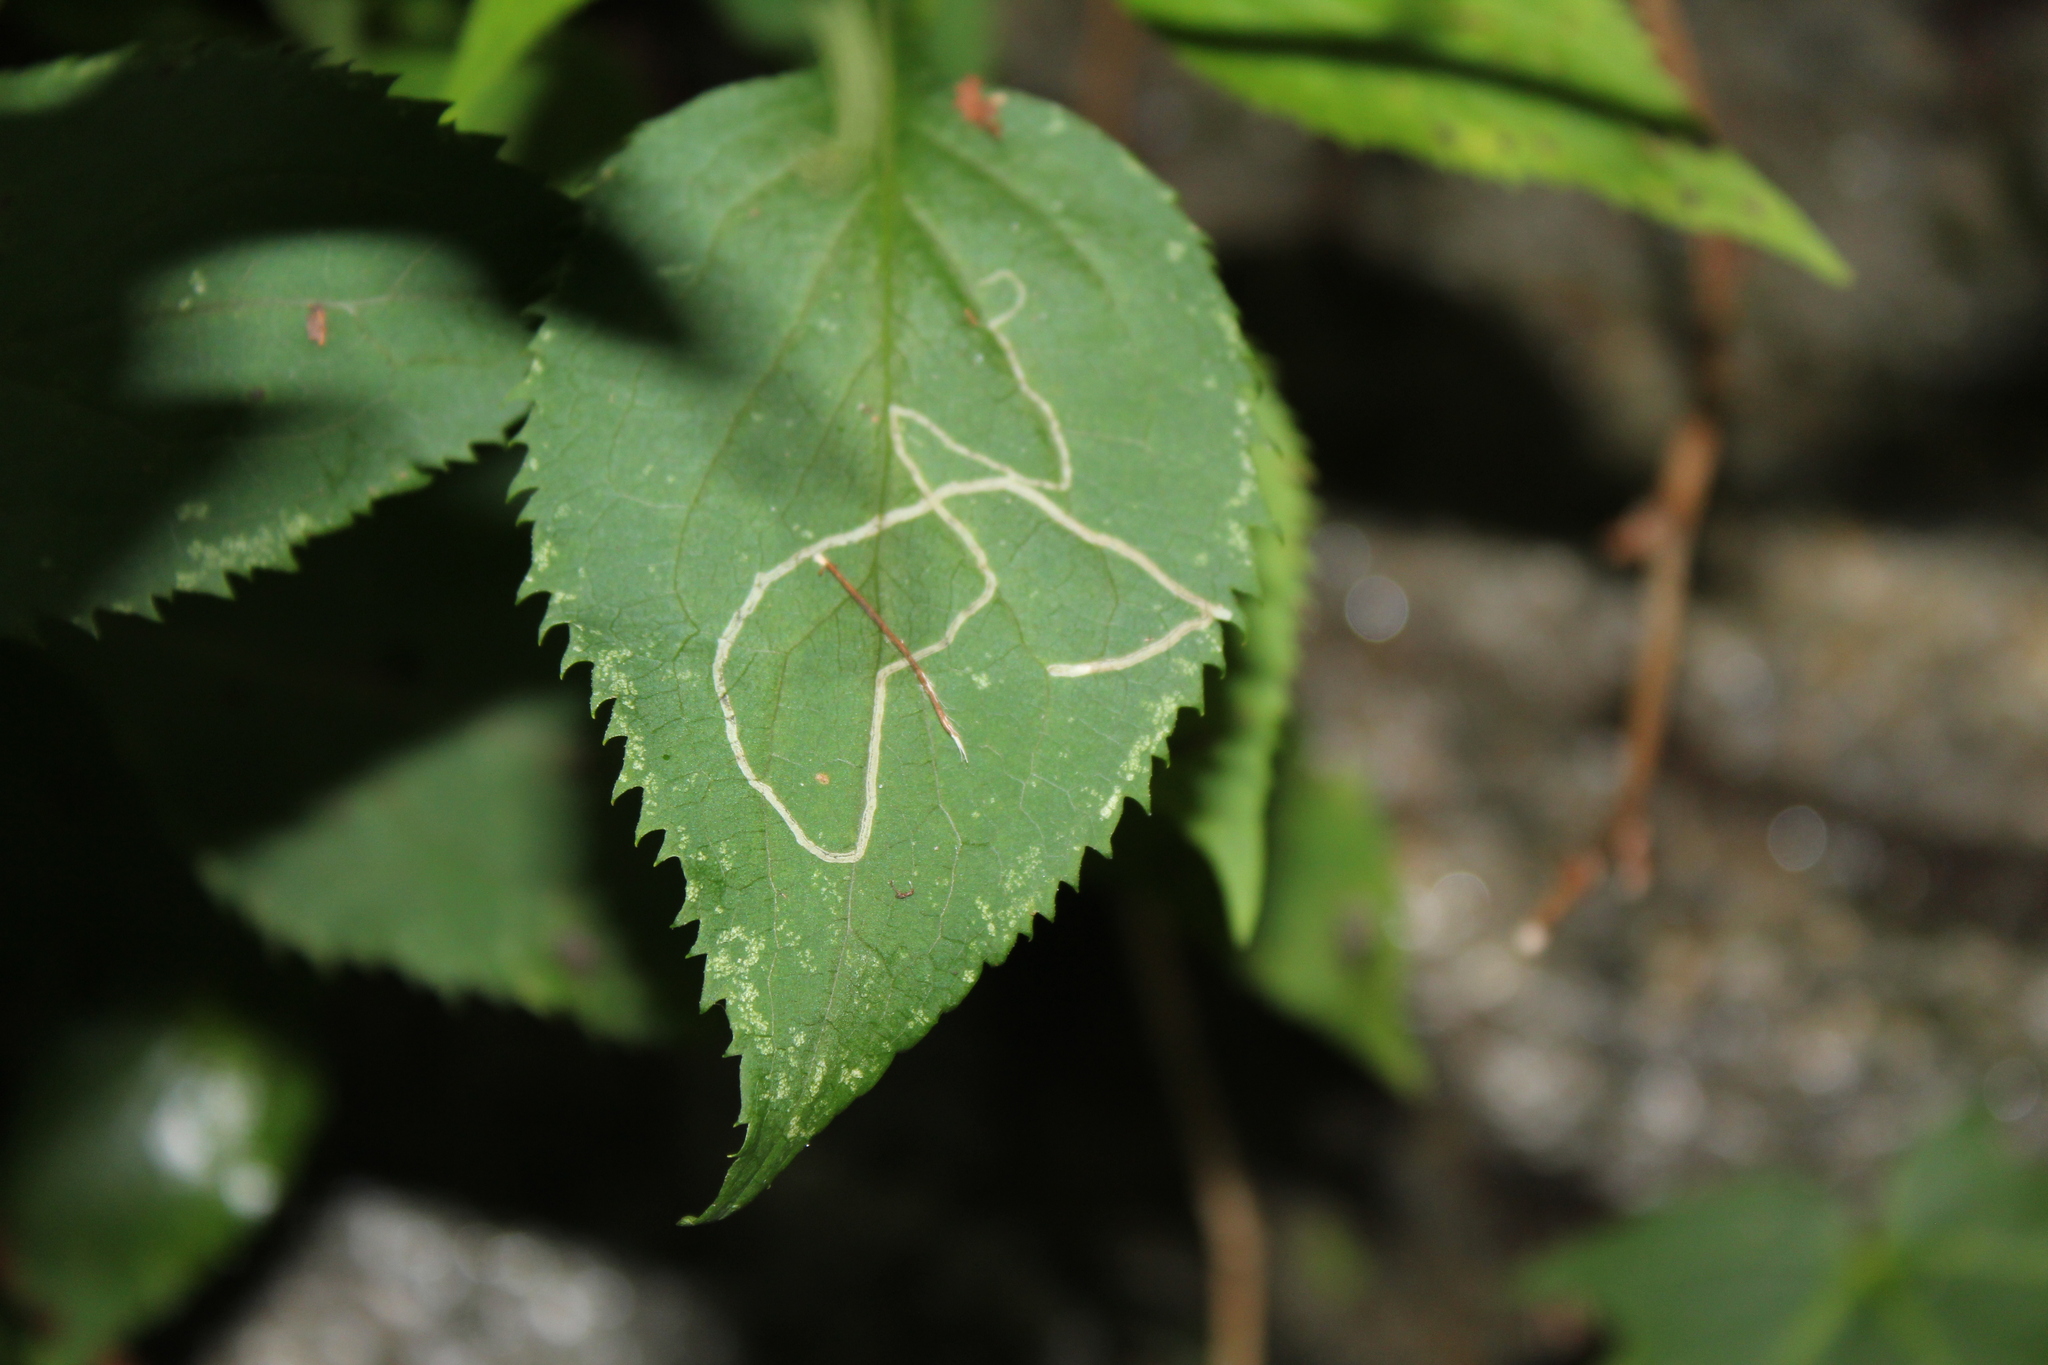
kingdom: Animalia
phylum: Arthropoda
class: Insecta
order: Diptera
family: Agromyzidae
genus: Ophiomyia
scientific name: Ophiomyia maura
